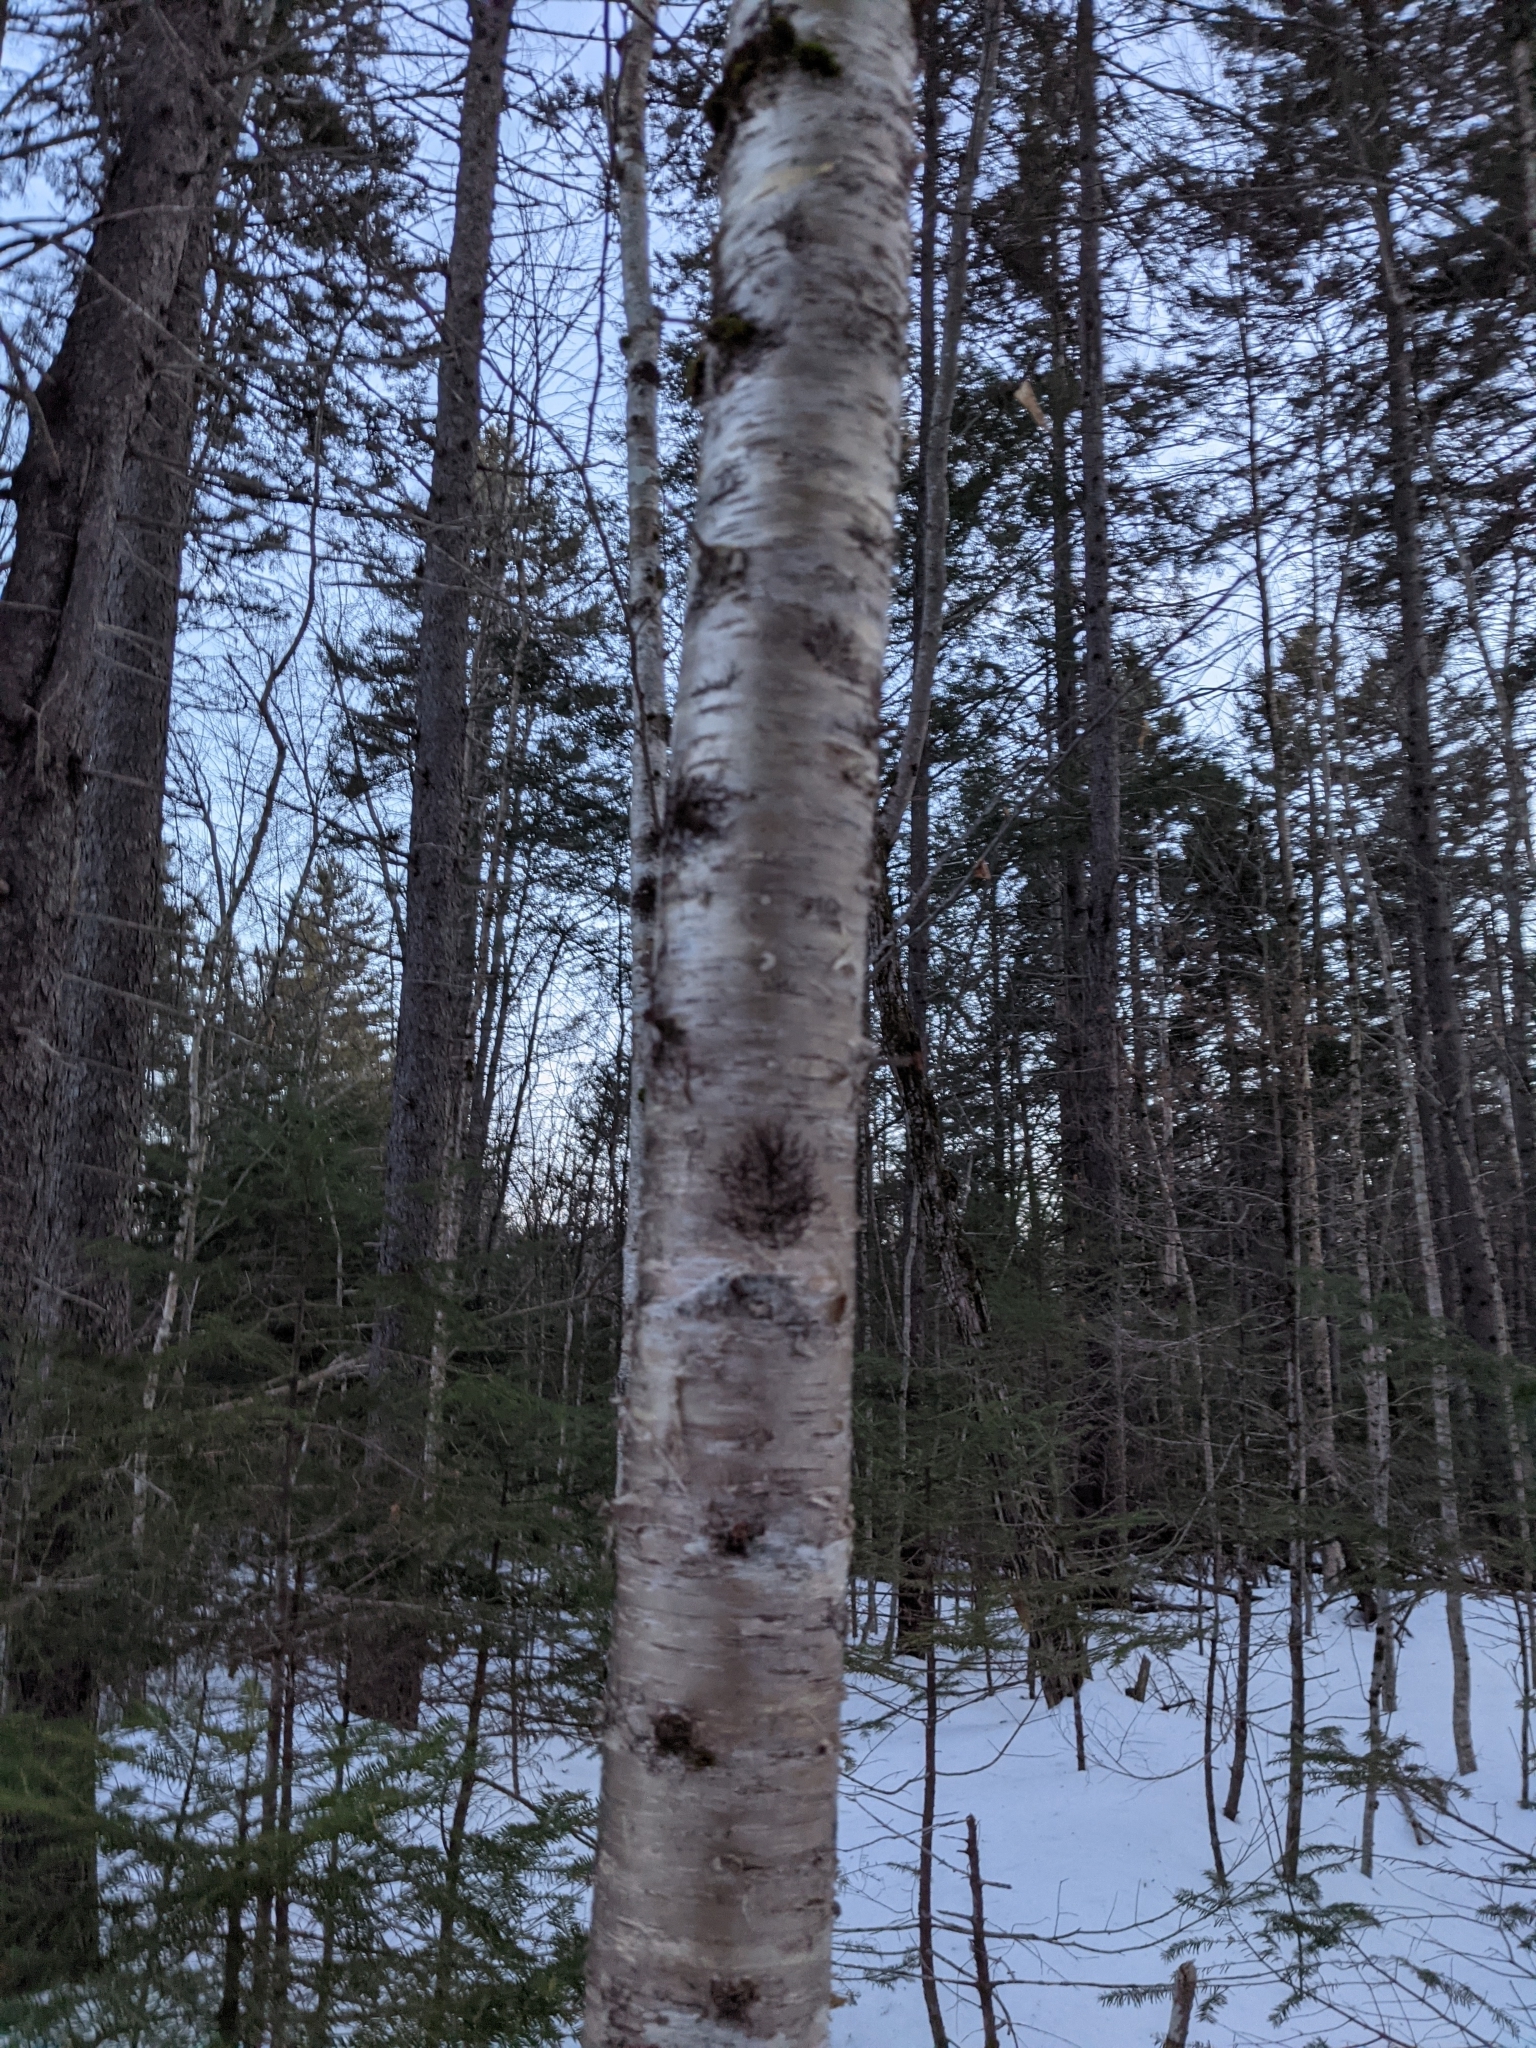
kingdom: Plantae
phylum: Tracheophyta
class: Magnoliopsida
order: Fagales
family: Betulaceae
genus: Betula
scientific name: Betula alleghaniensis
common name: Yellow birch
